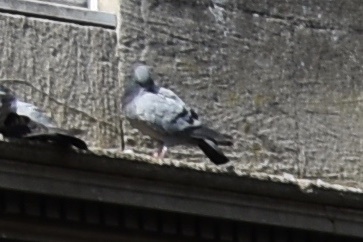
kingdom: Animalia
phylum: Chordata
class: Aves
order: Columbiformes
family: Columbidae
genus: Columba
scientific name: Columba livia
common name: Rock pigeon
